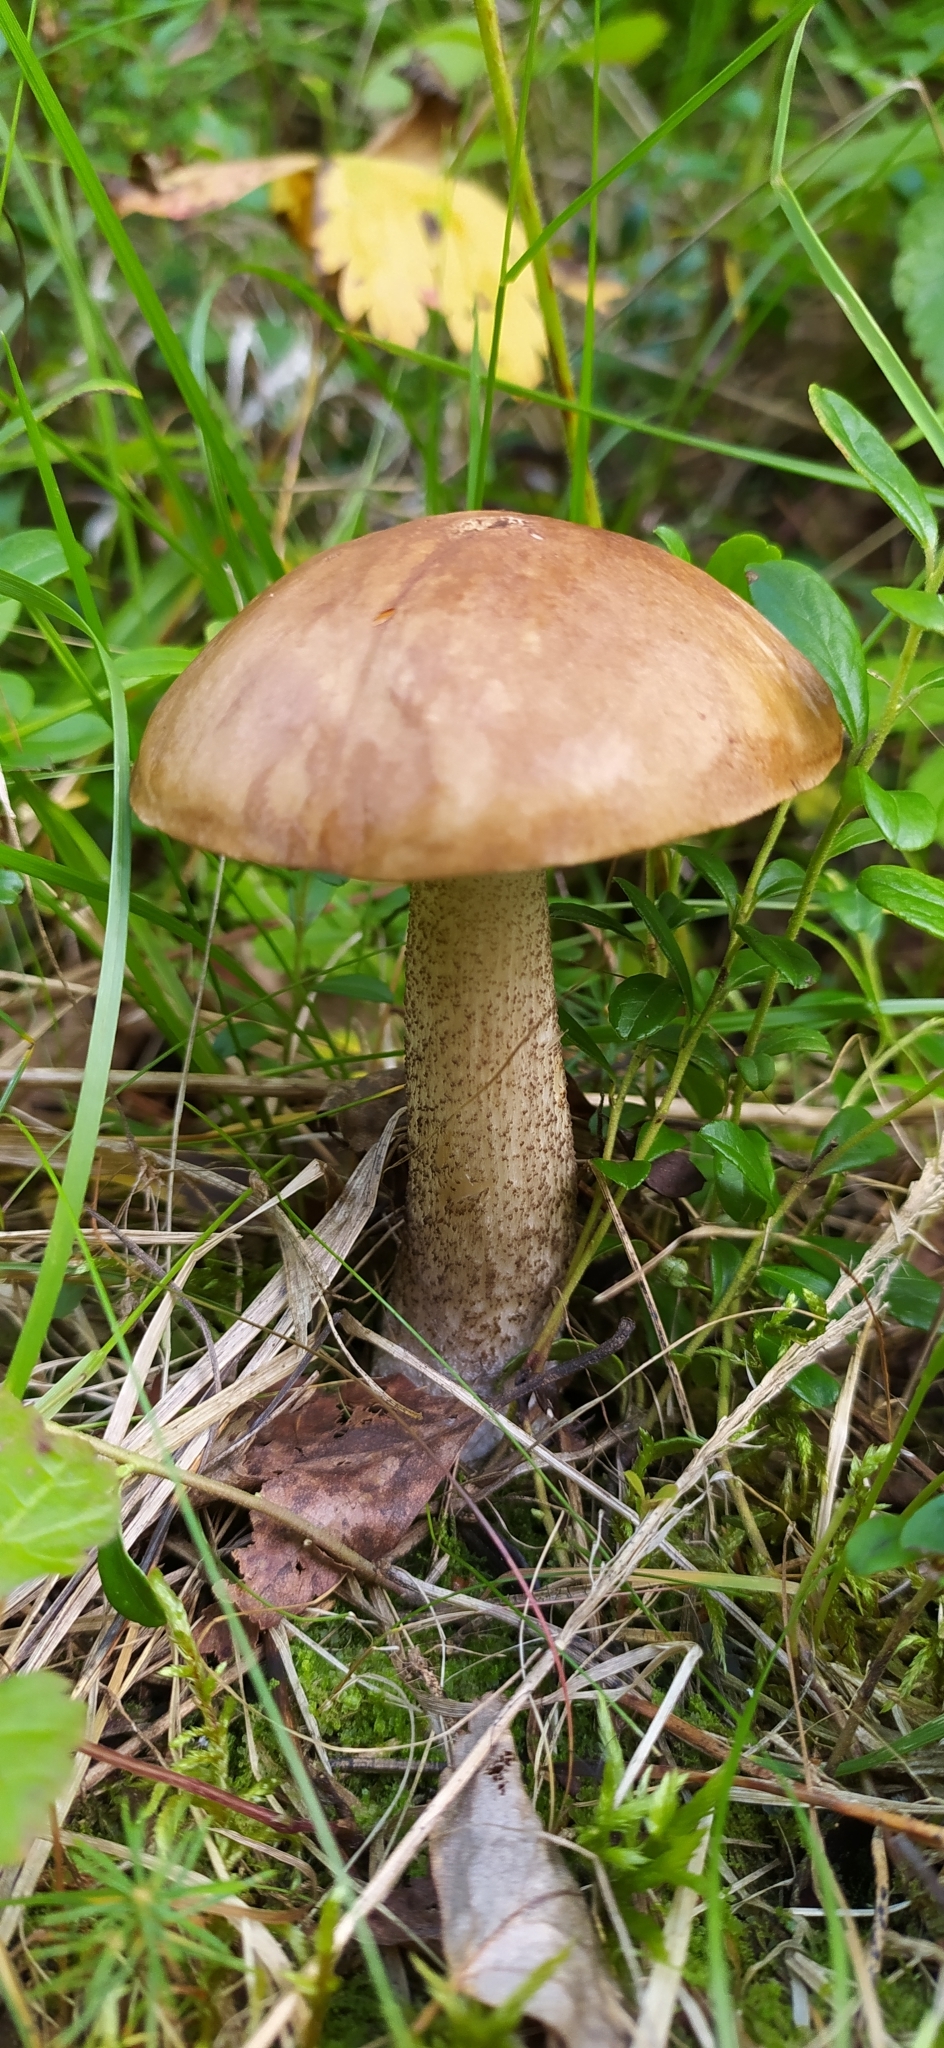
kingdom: Fungi
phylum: Basidiomycota
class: Agaricomycetes
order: Boletales
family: Boletaceae
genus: Leccinum
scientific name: Leccinum aurantiacum
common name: Orange bolete
